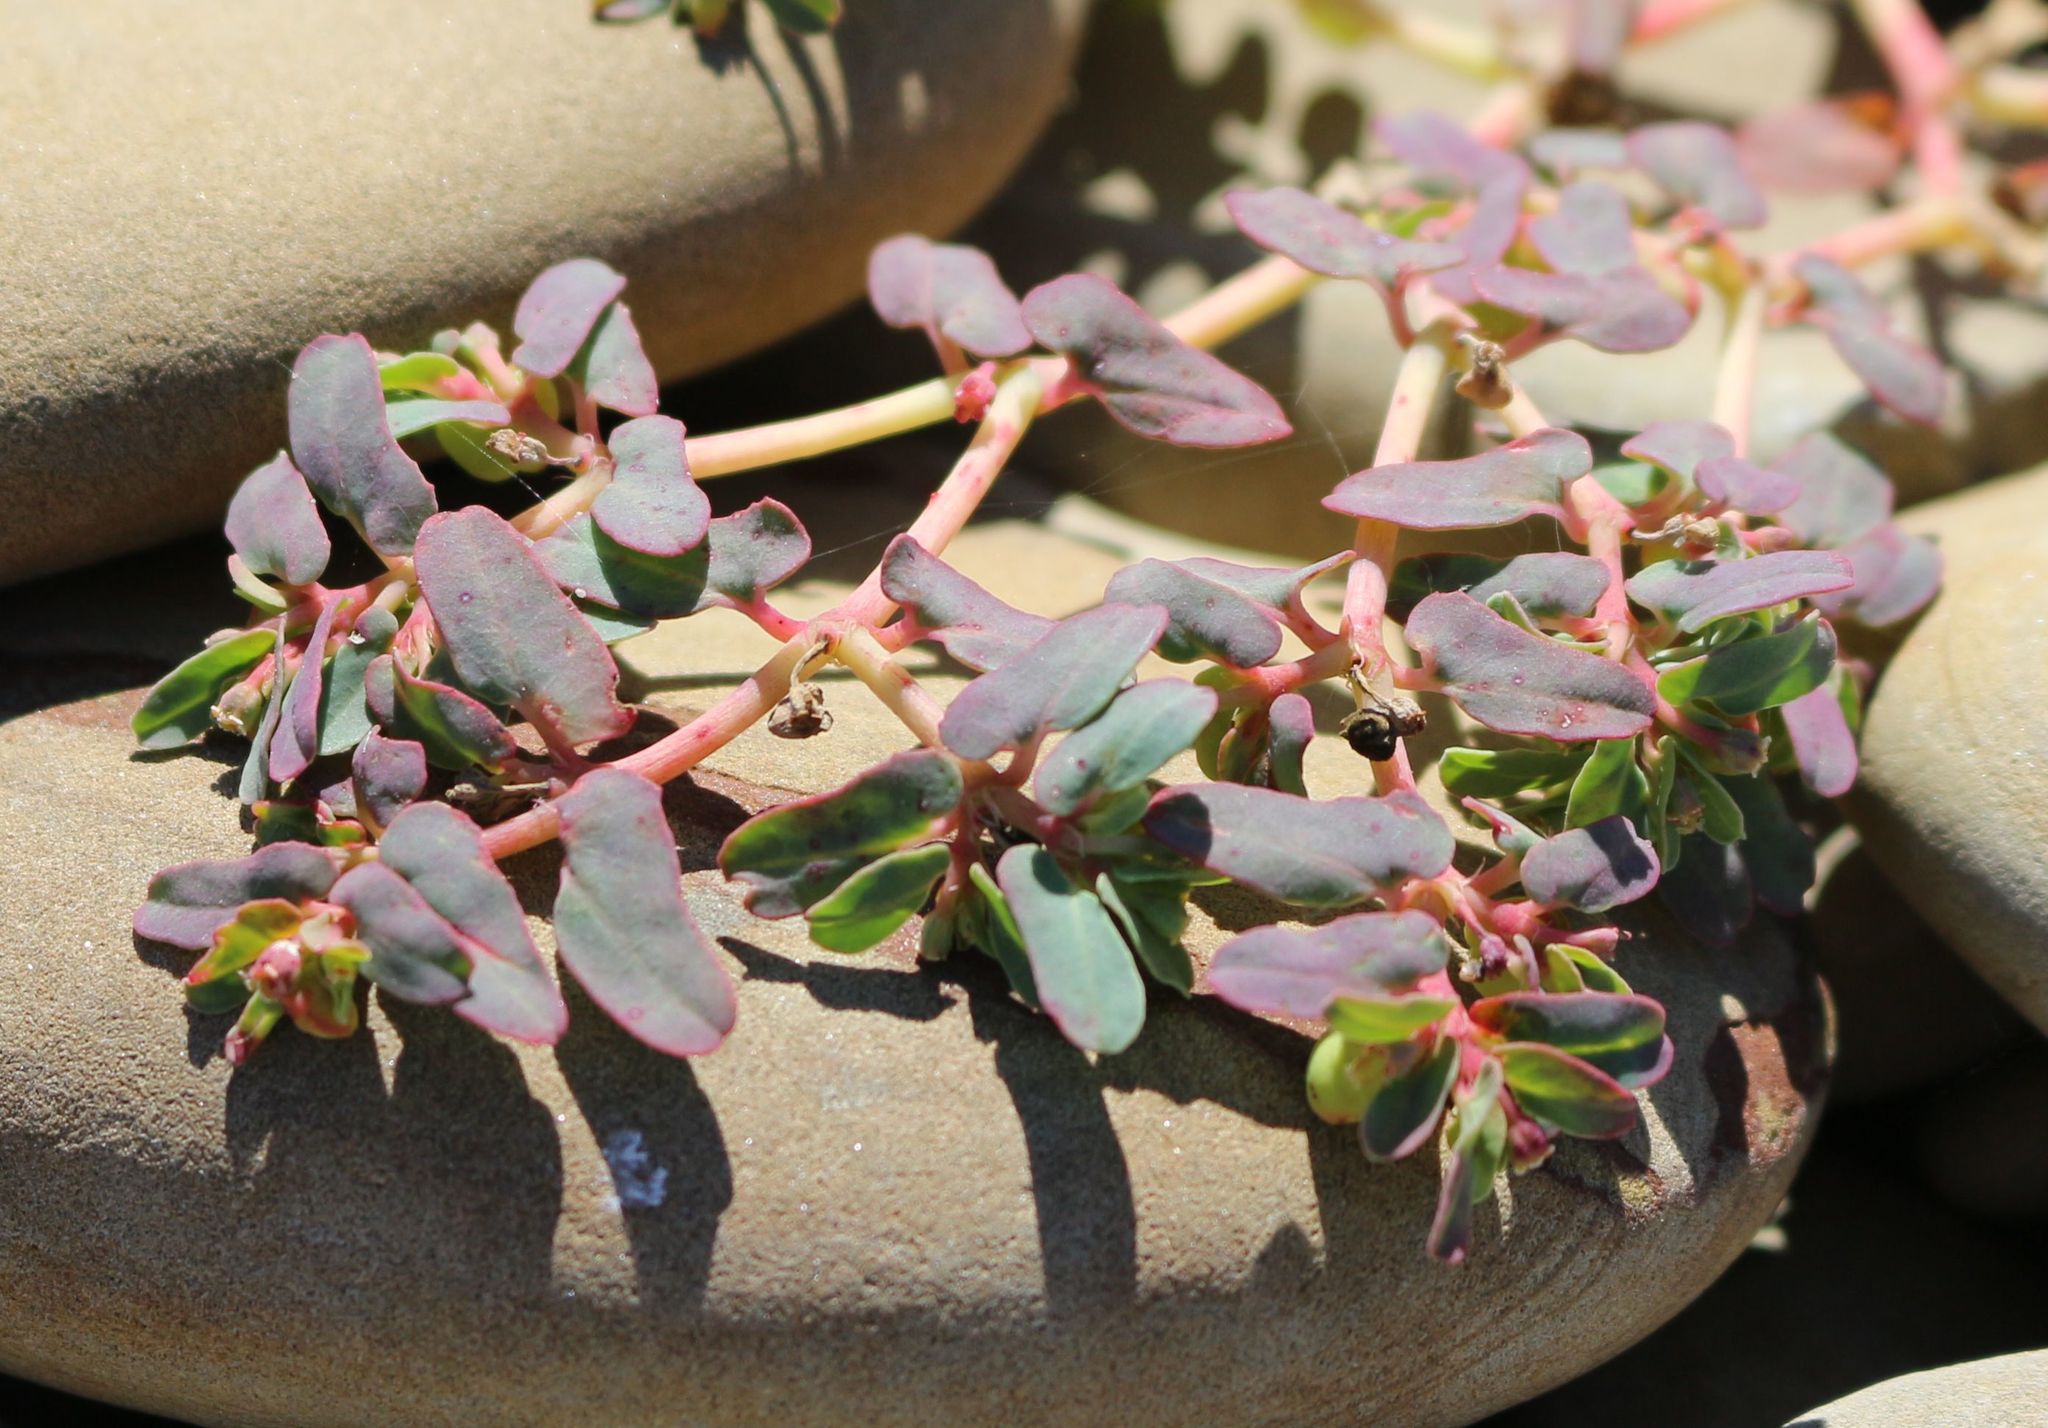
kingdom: Plantae
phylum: Tracheophyta
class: Magnoliopsida
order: Malpighiales
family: Euphorbiaceae
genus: Euphorbia
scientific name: Euphorbia peplis
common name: Purple spurge
